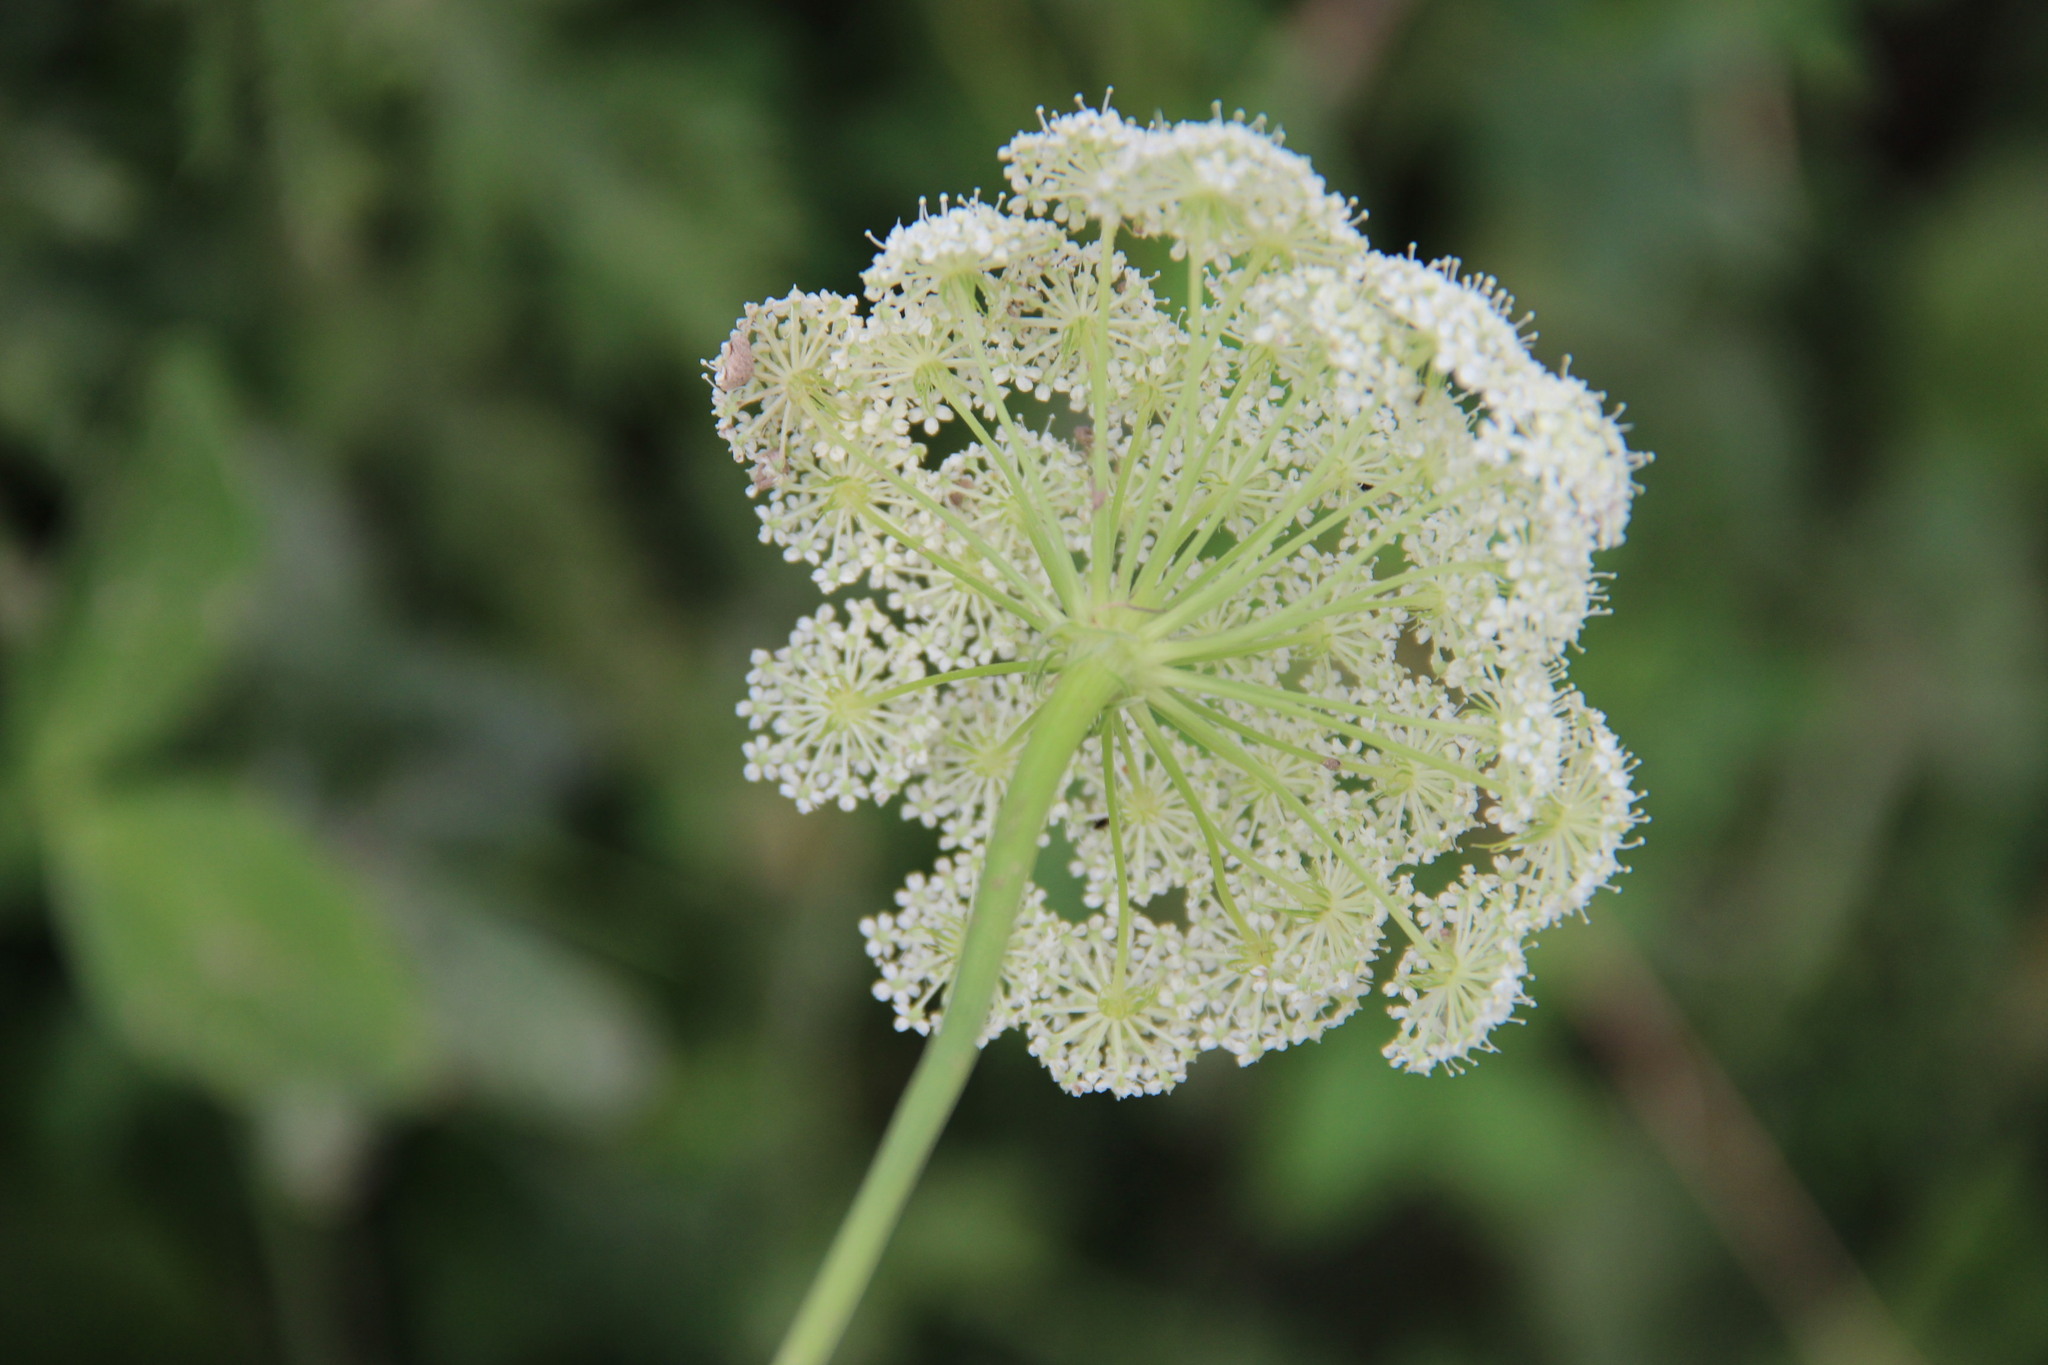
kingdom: Plantae
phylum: Tracheophyta
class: Magnoliopsida
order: Apiales
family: Apiaceae
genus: Seseli
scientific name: Seseli libanotis
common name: Mooncarrot
